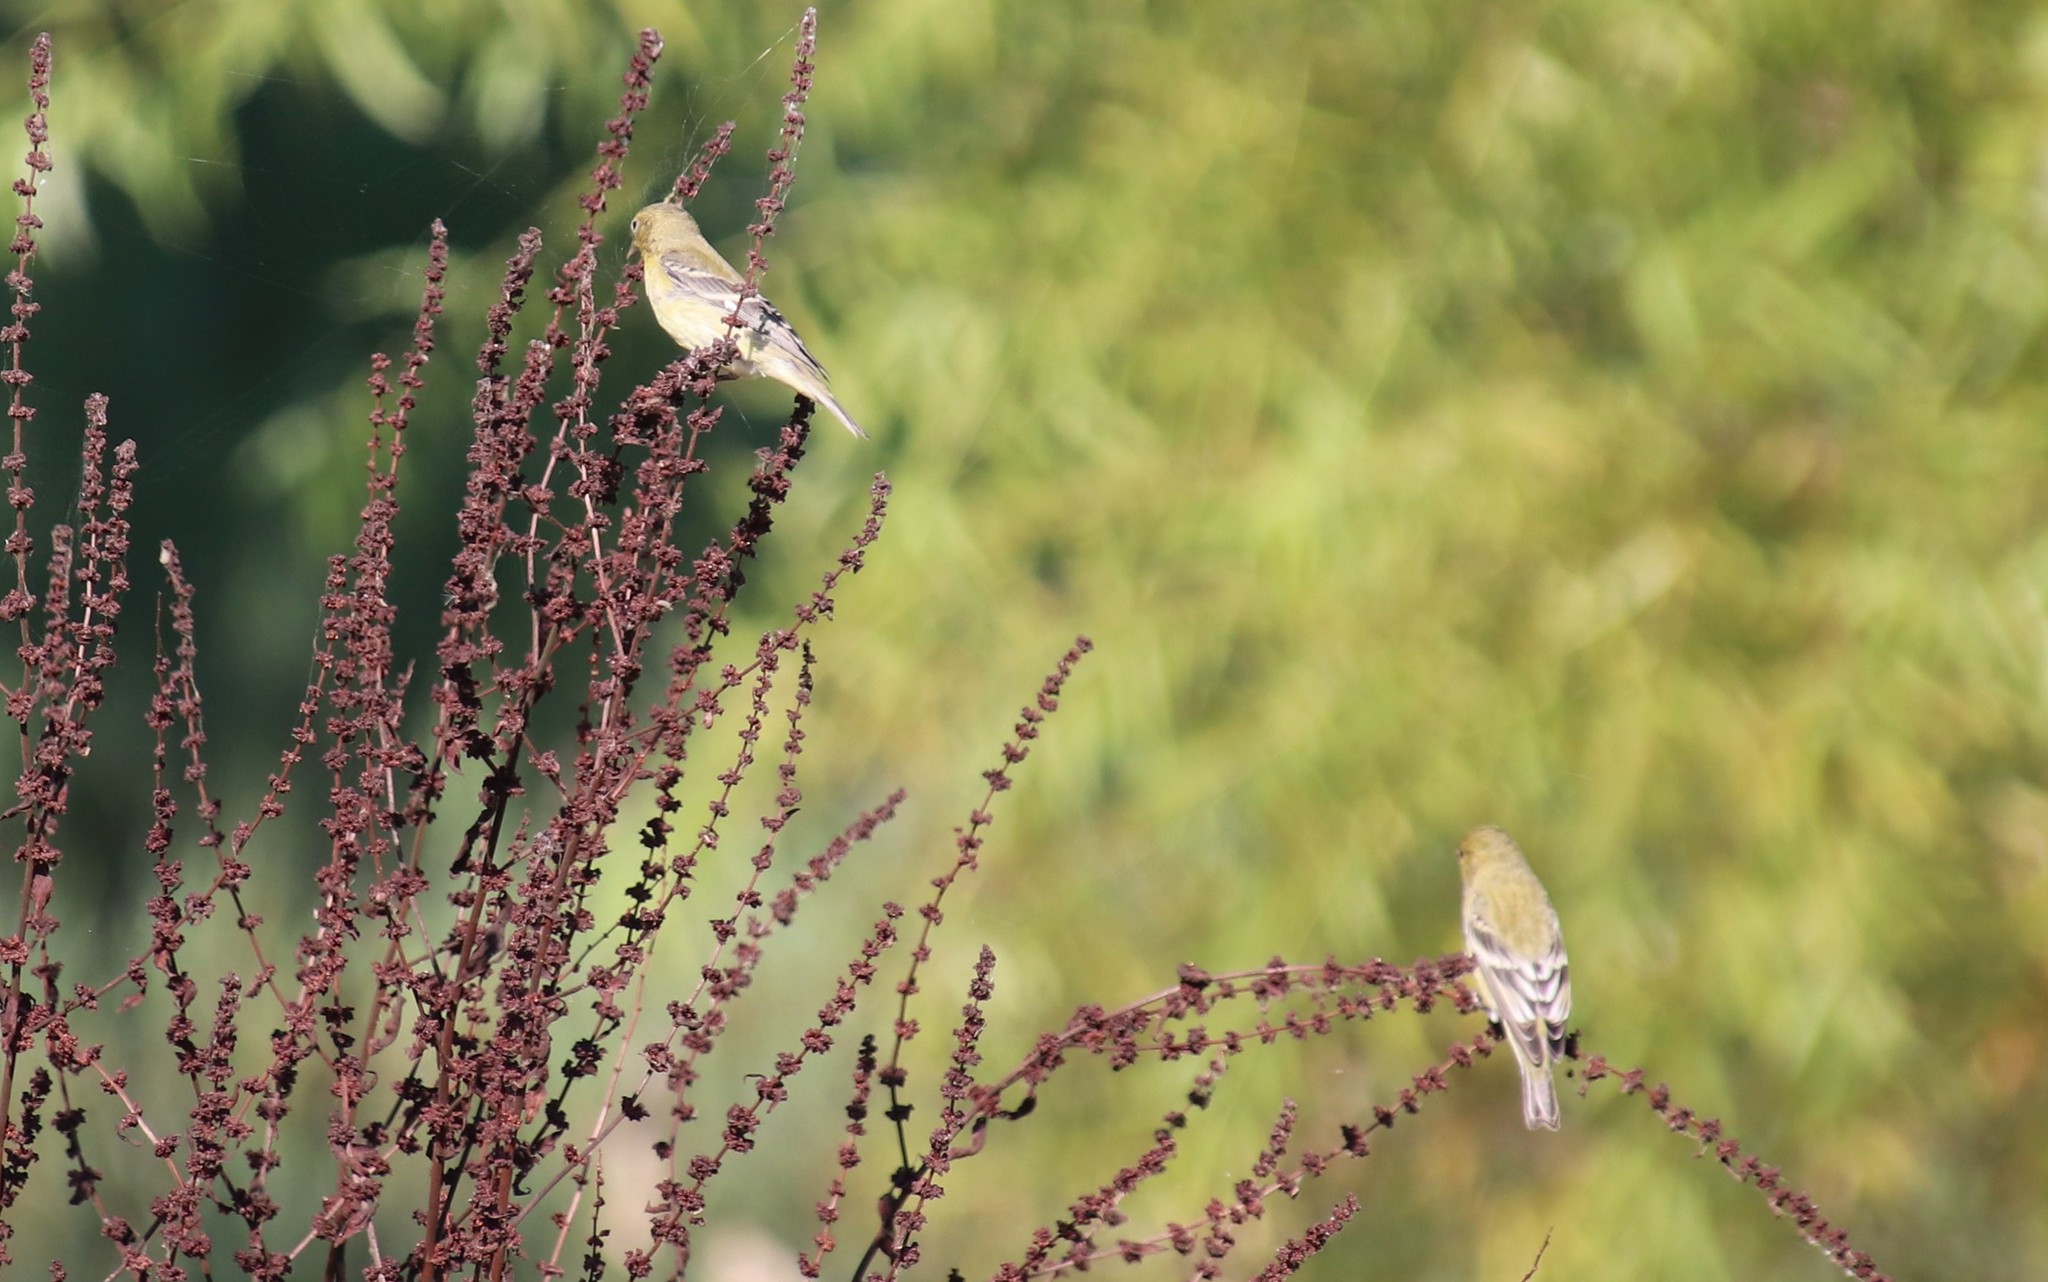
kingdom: Animalia
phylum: Chordata
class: Aves
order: Passeriformes
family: Fringillidae
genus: Spinus
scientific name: Spinus psaltria
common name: Lesser goldfinch
